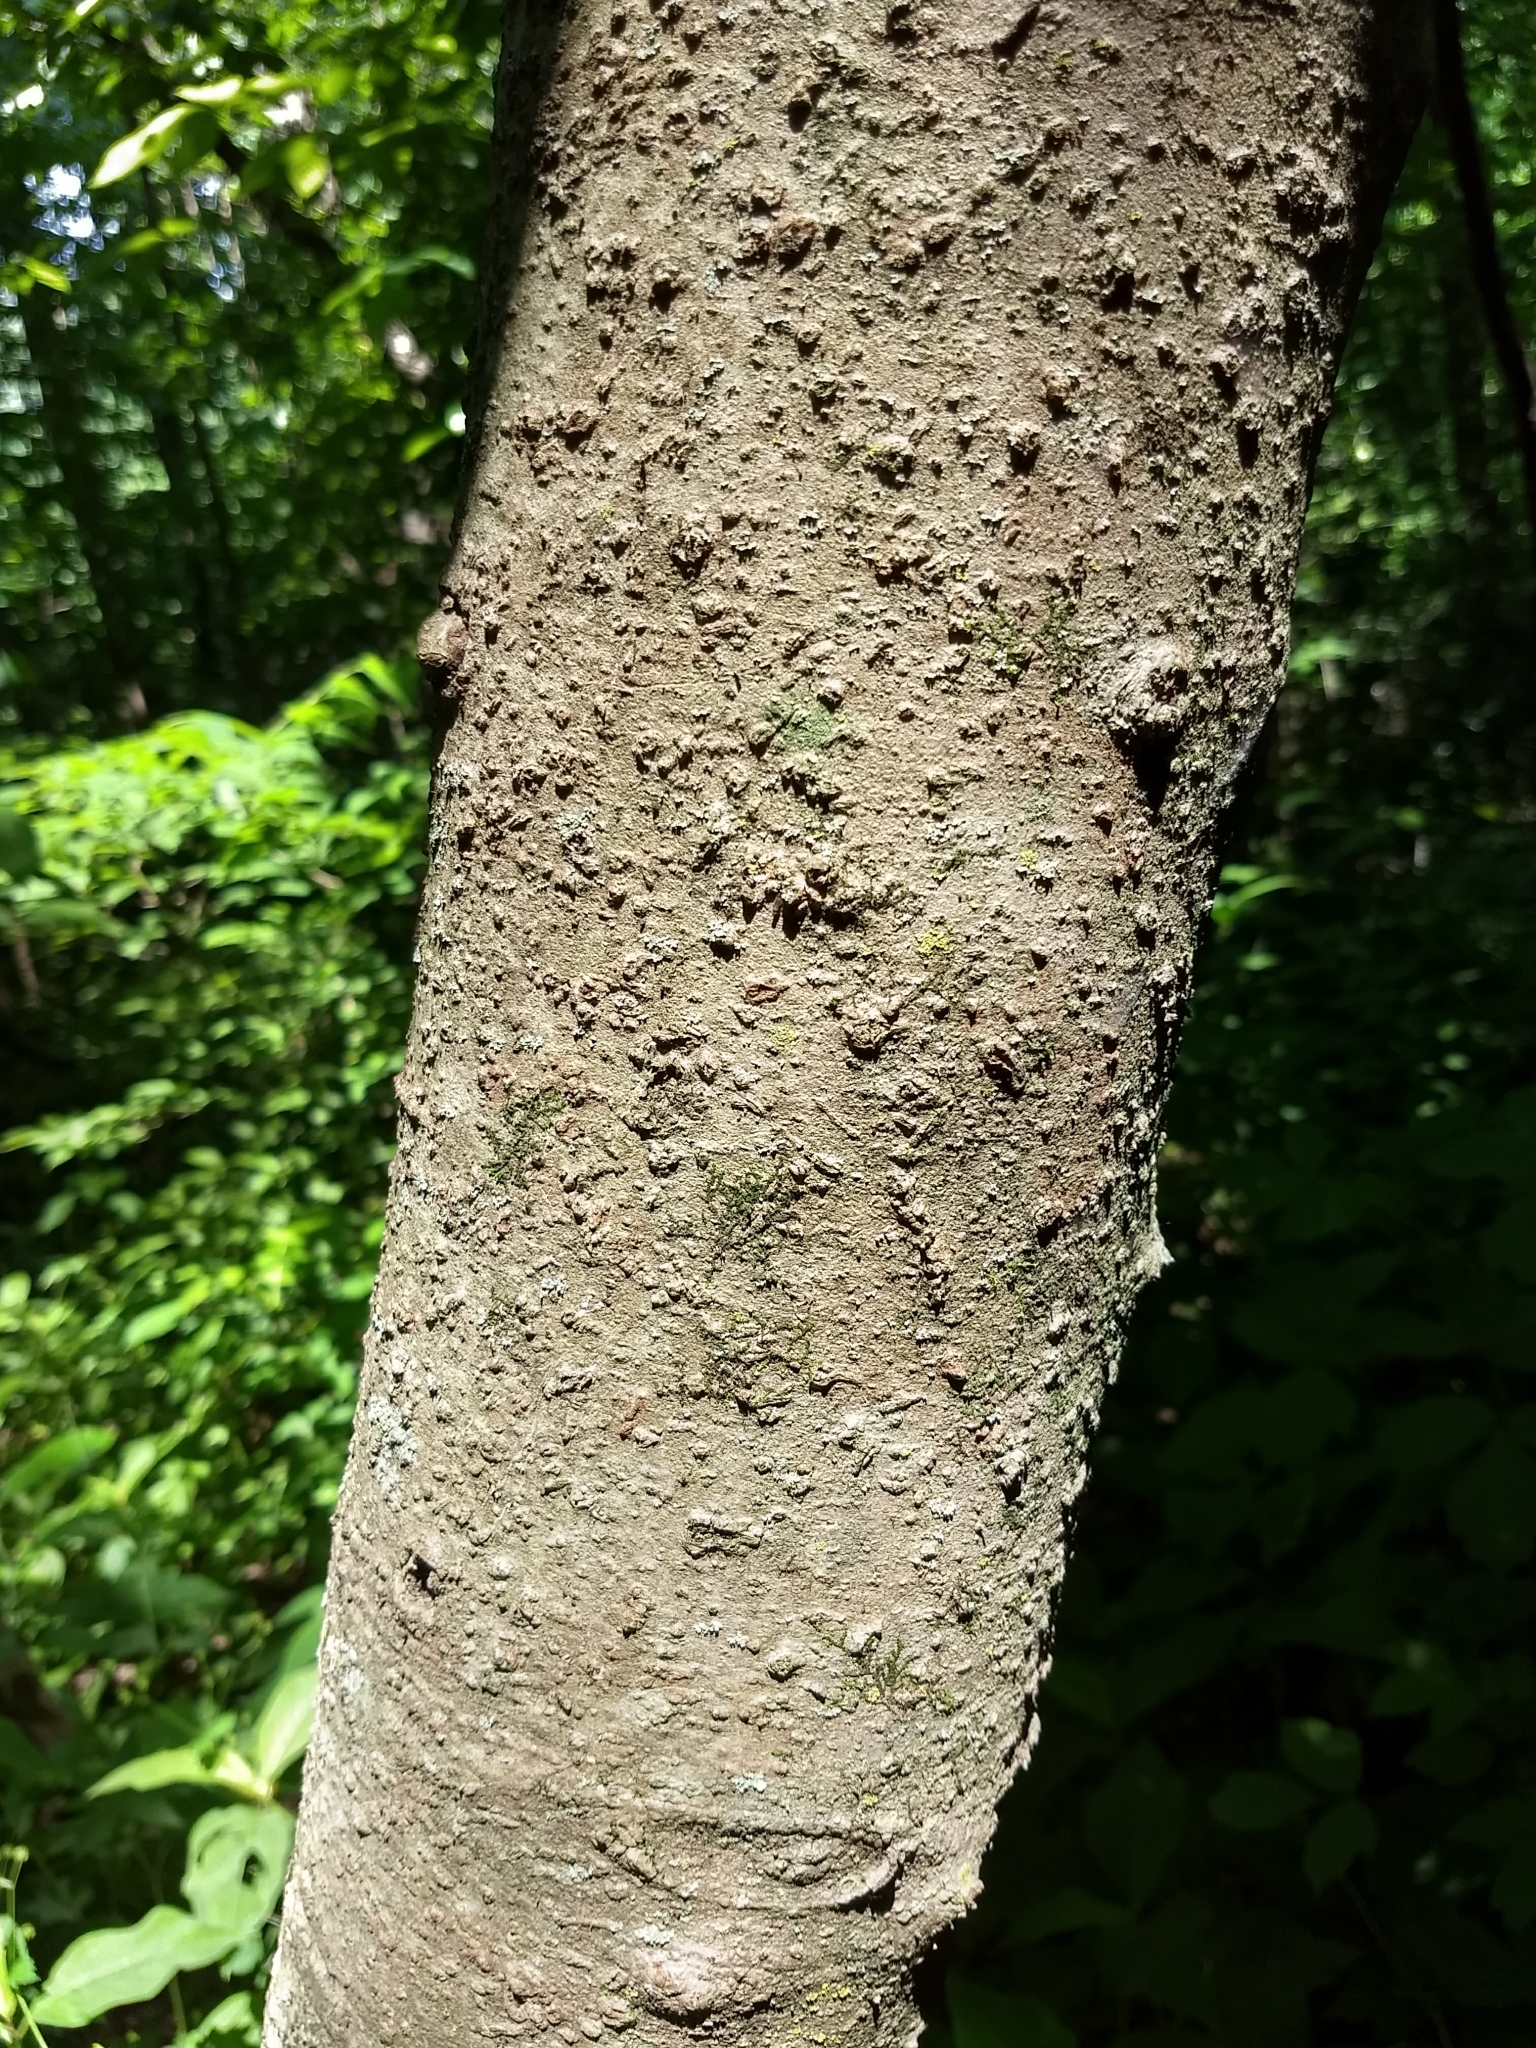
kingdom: Plantae
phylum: Tracheophyta
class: Magnoliopsida
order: Magnoliales
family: Annonaceae
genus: Asimina
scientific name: Asimina triloba
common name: Dog-banana
